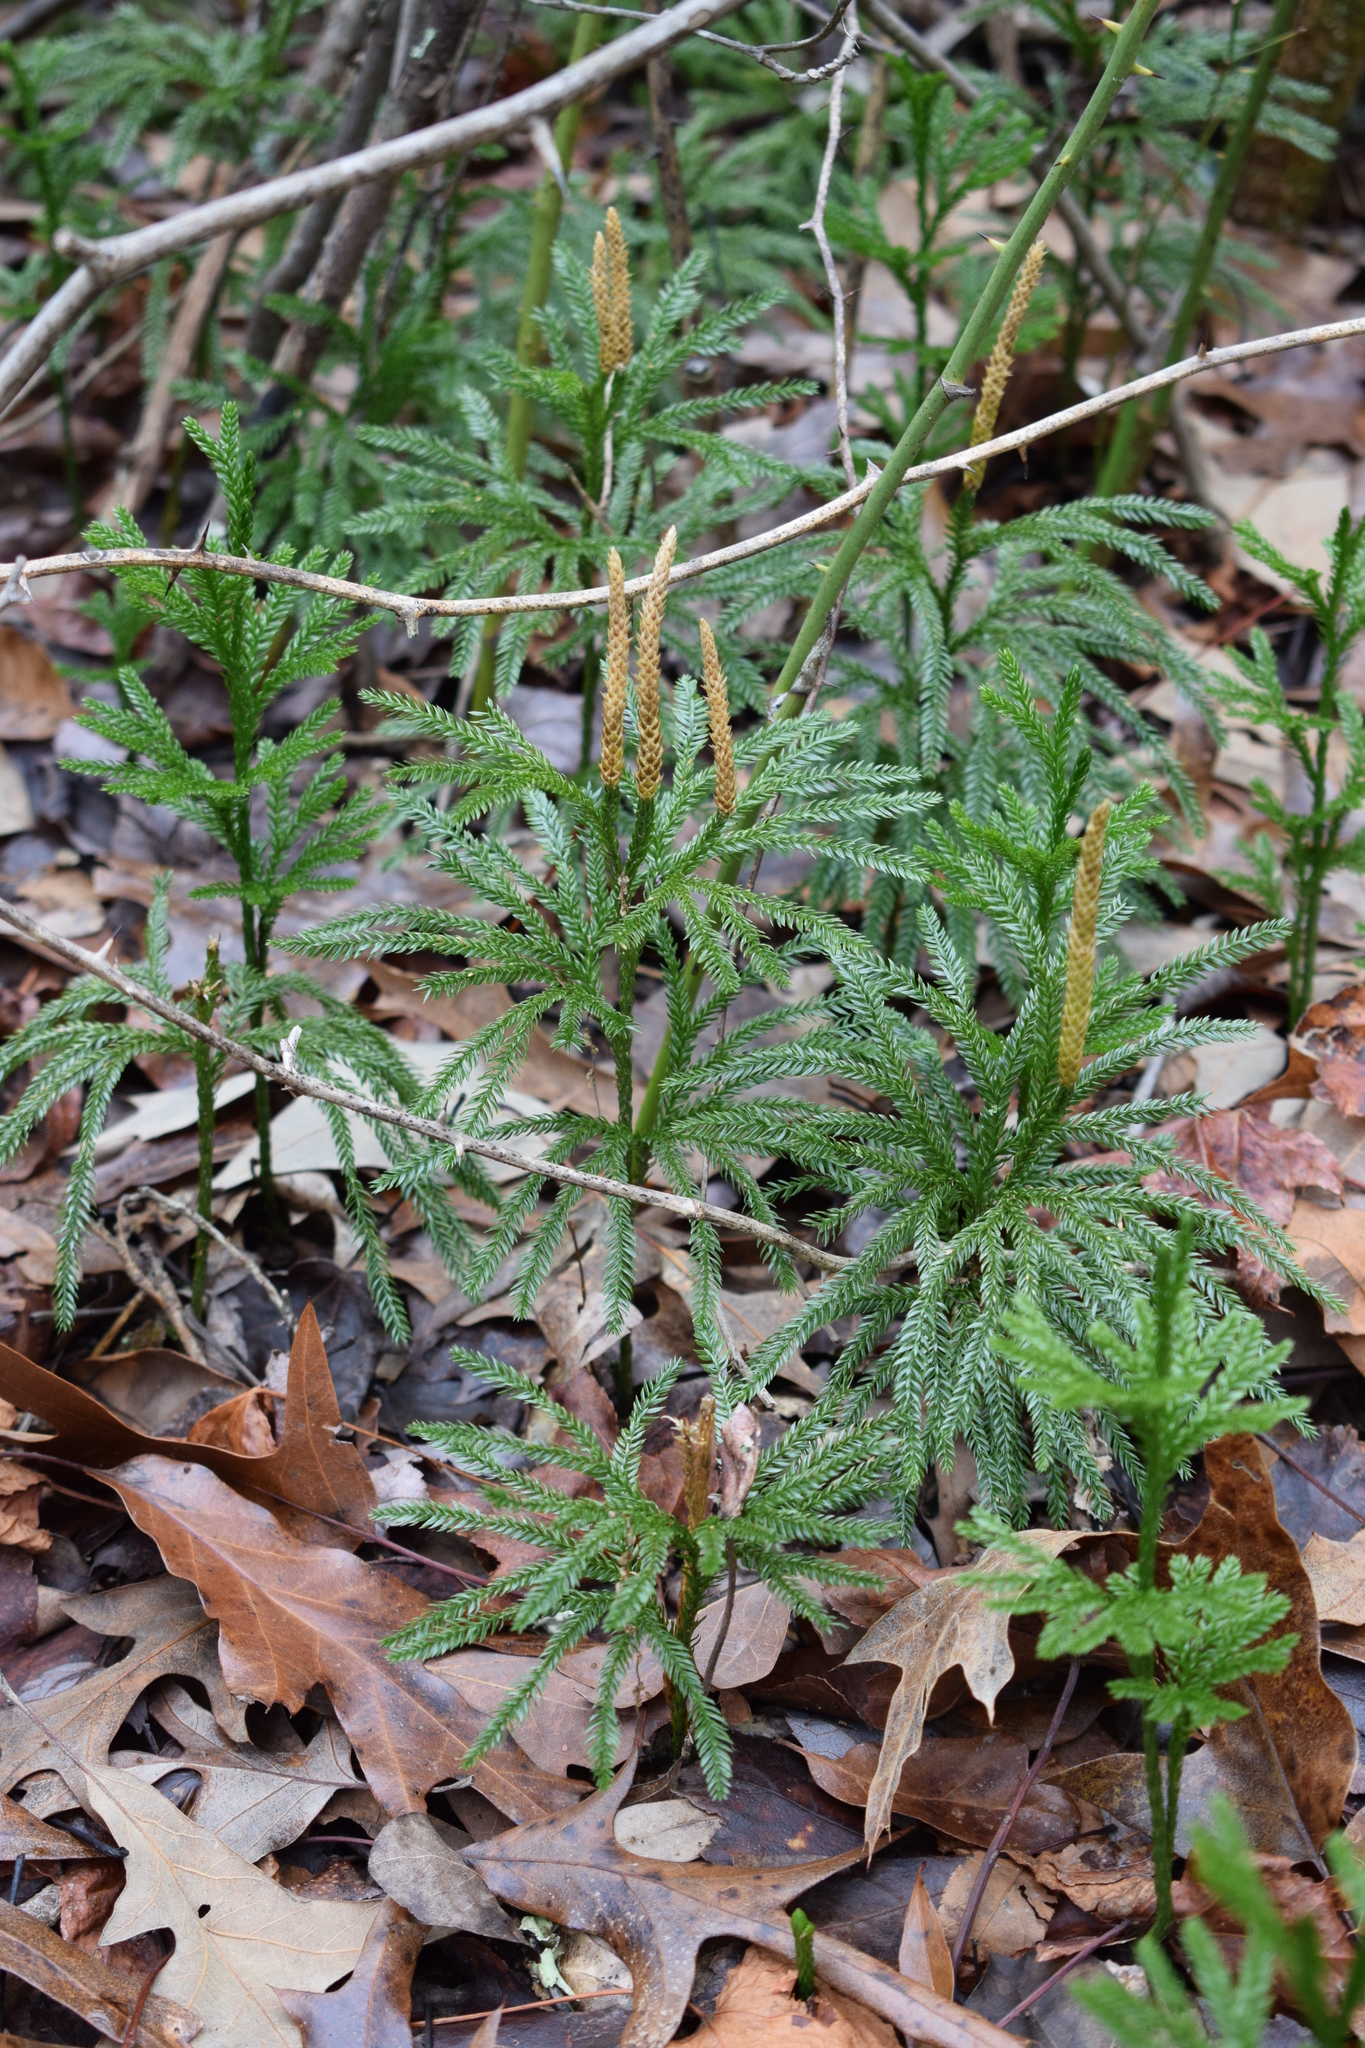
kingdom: Plantae
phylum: Tracheophyta
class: Lycopodiopsida
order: Lycopodiales
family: Lycopodiaceae
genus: Dendrolycopodium
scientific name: Dendrolycopodium obscurum
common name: Common ground-pine
